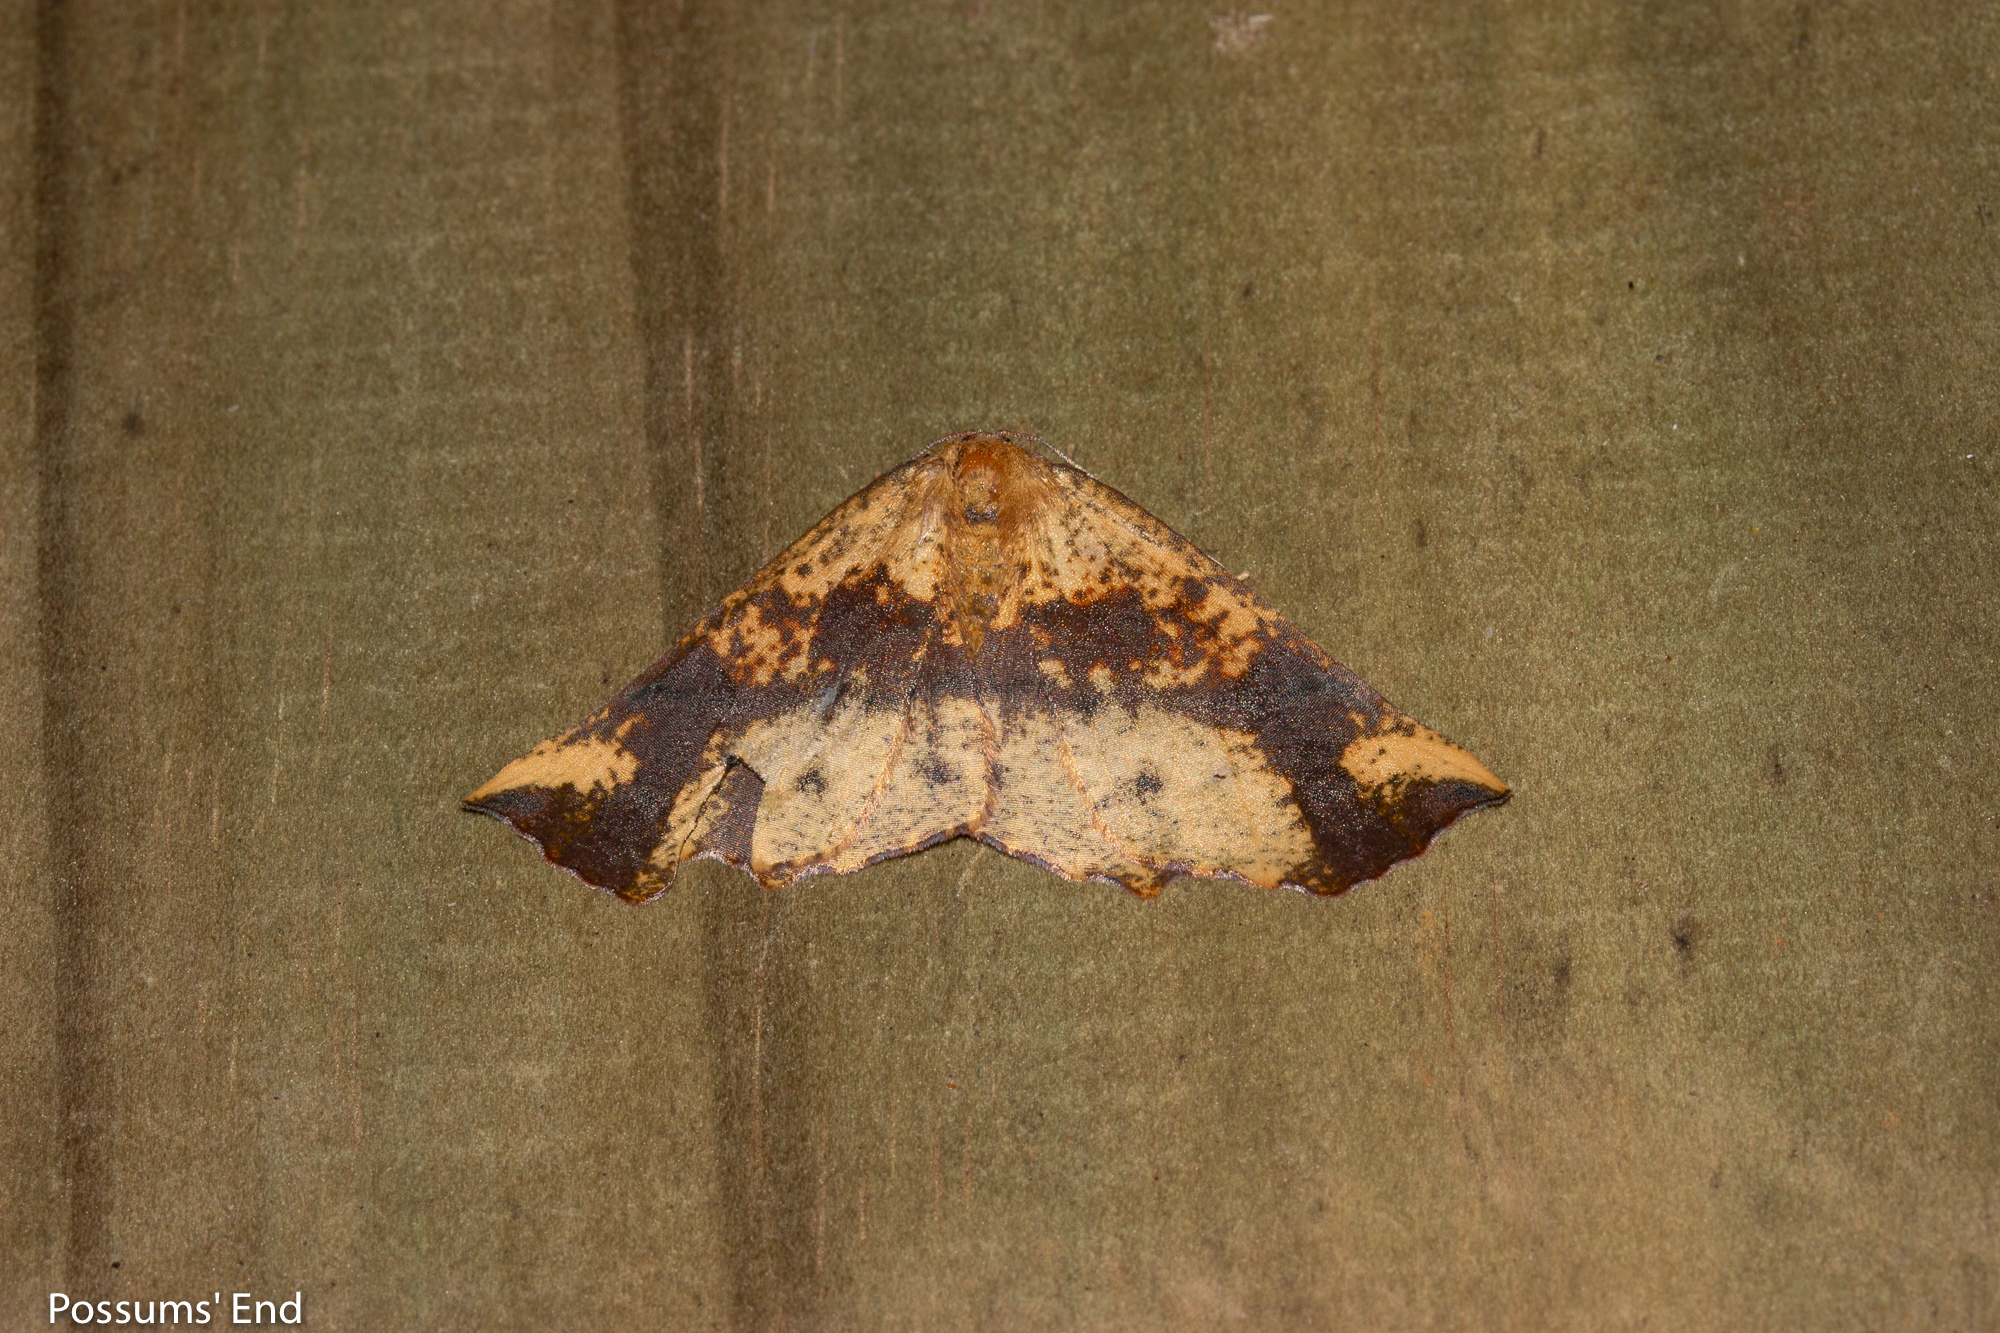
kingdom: Animalia
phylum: Arthropoda
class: Insecta
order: Lepidoptera
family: Geometridae
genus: Xyridacma
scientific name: Xyridacma ustaria
